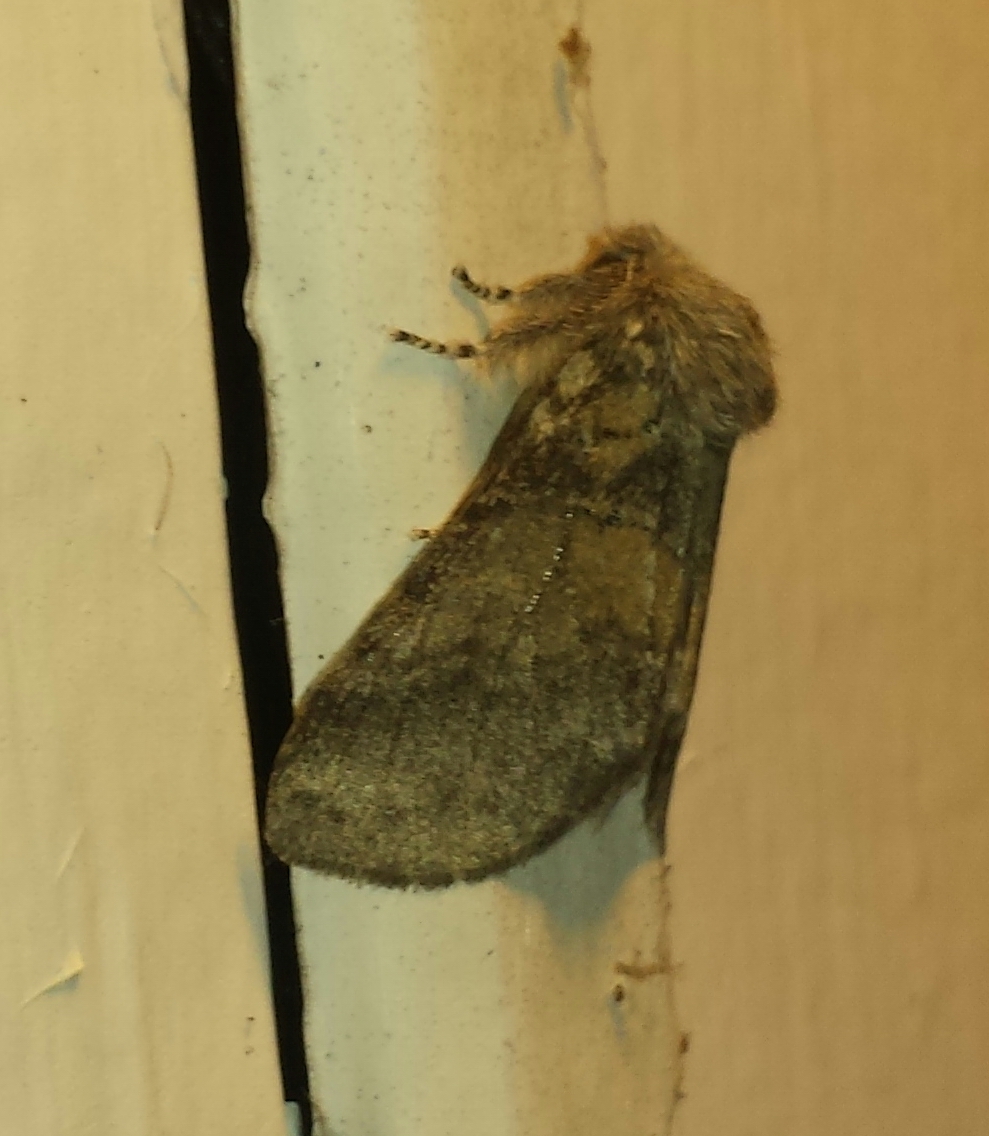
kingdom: Animalia
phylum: Arthropoda
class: Insecta
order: Lepidoptera
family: Notodontidae
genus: Gluphisia
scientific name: Gluphisia septentrionis
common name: Common gluphisia
